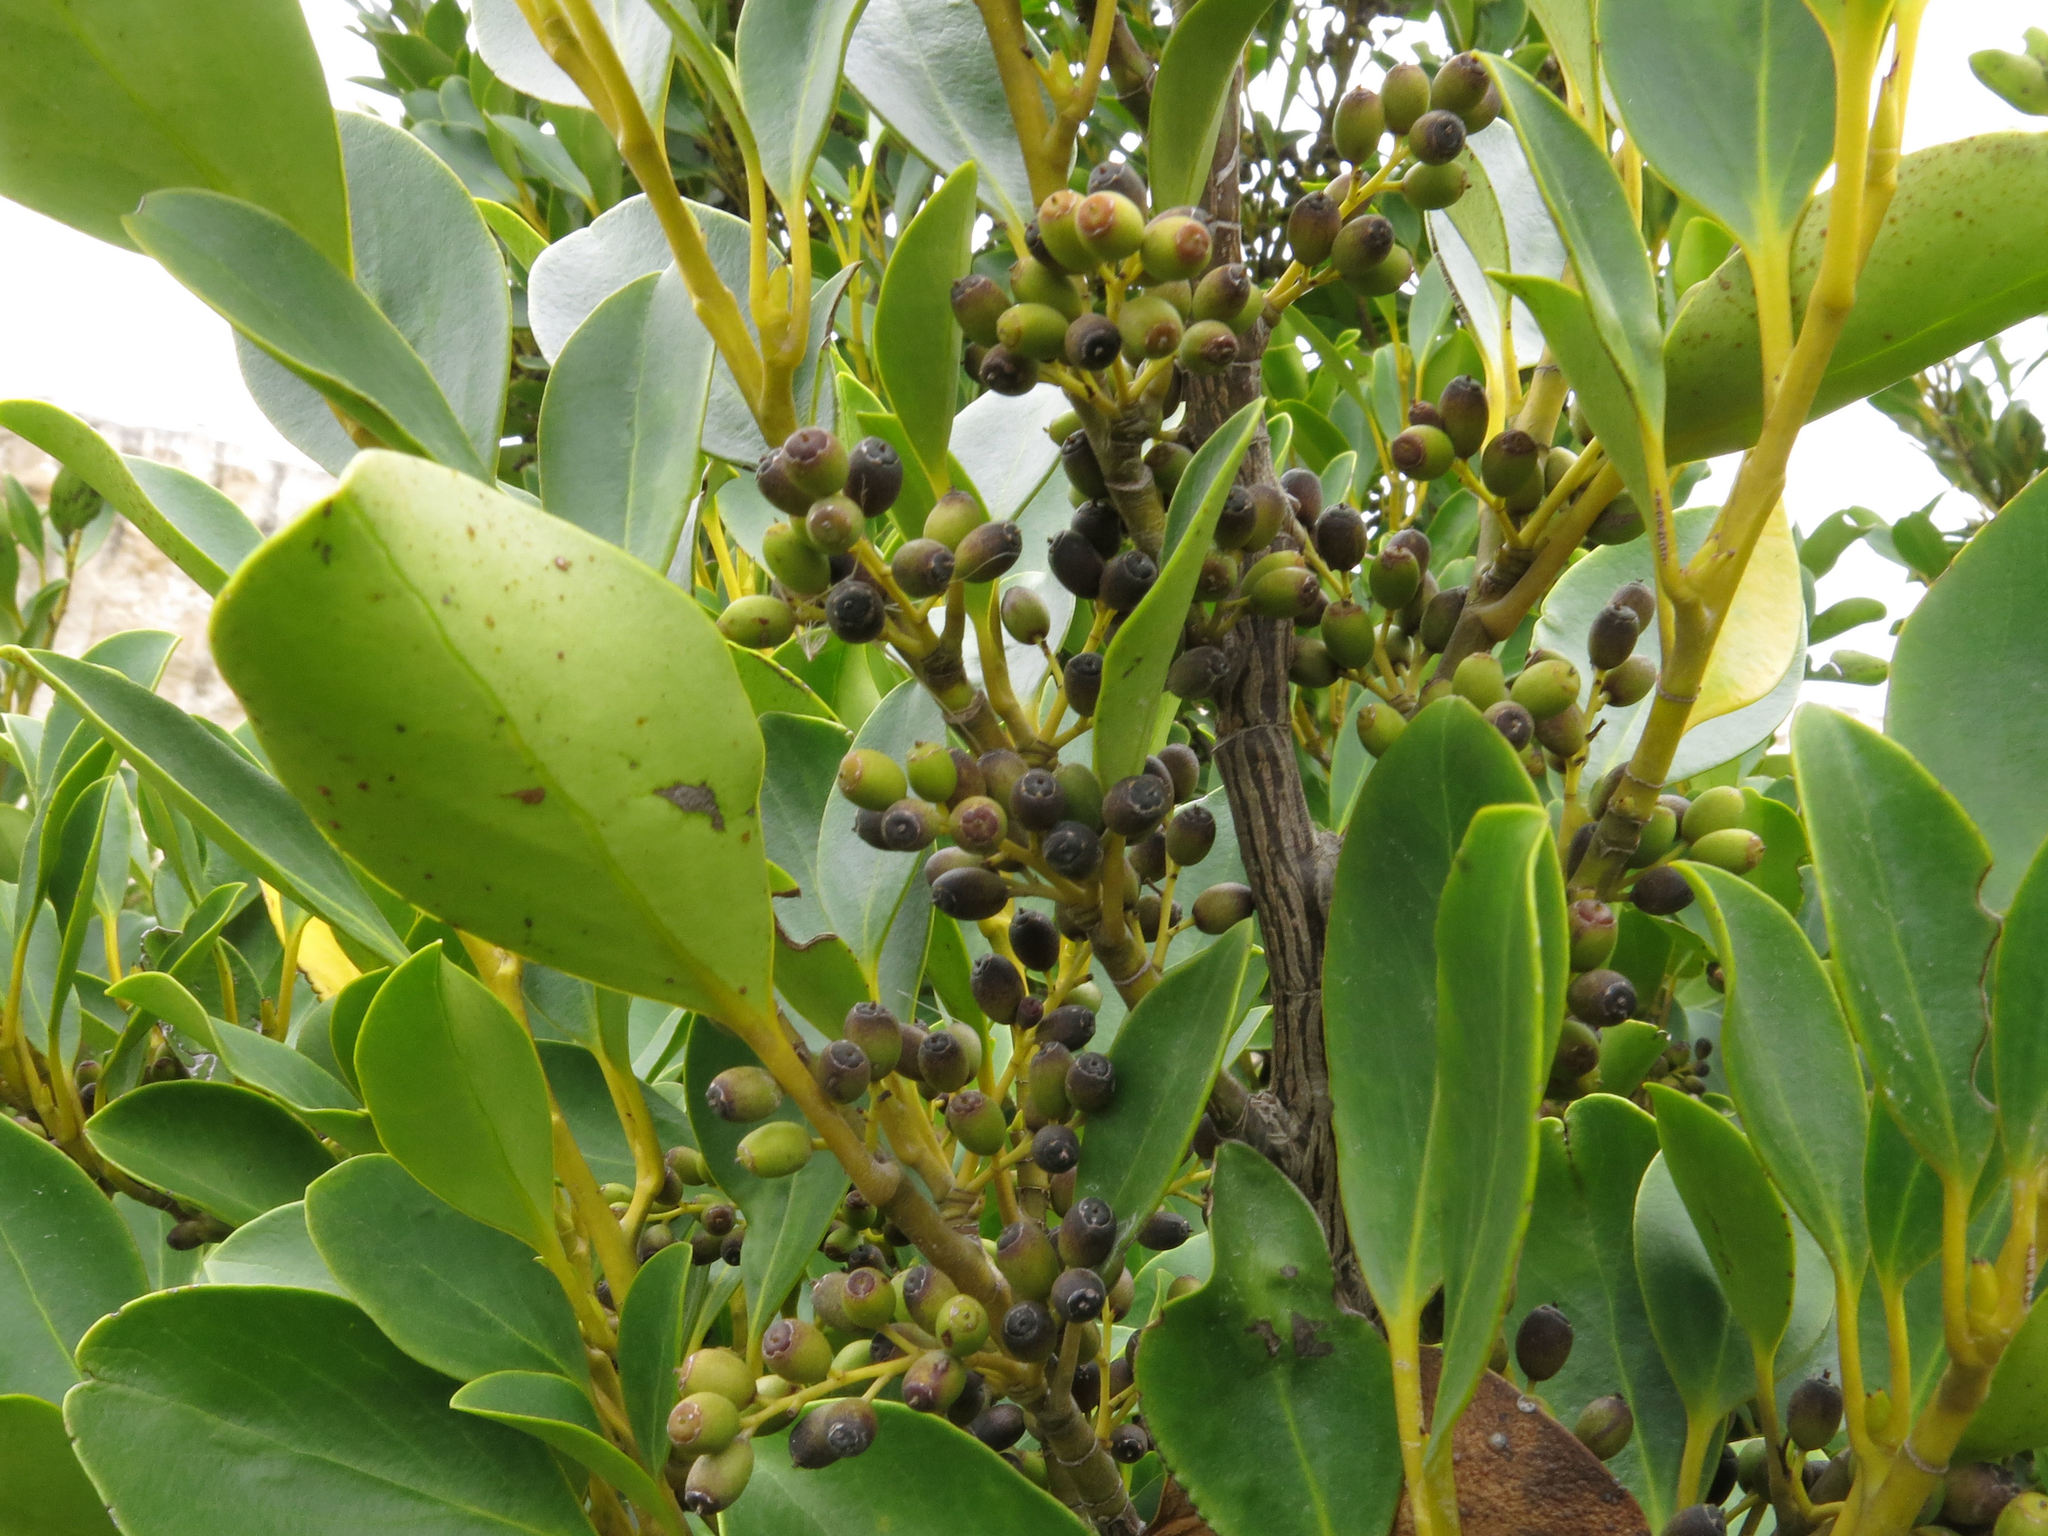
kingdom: Plantae
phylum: Tracheophyta
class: Magnoliopsida
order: Apiales
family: Griseliniaceae
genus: Griselinia
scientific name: Griselinia littoralis
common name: New zealand broadleaf
